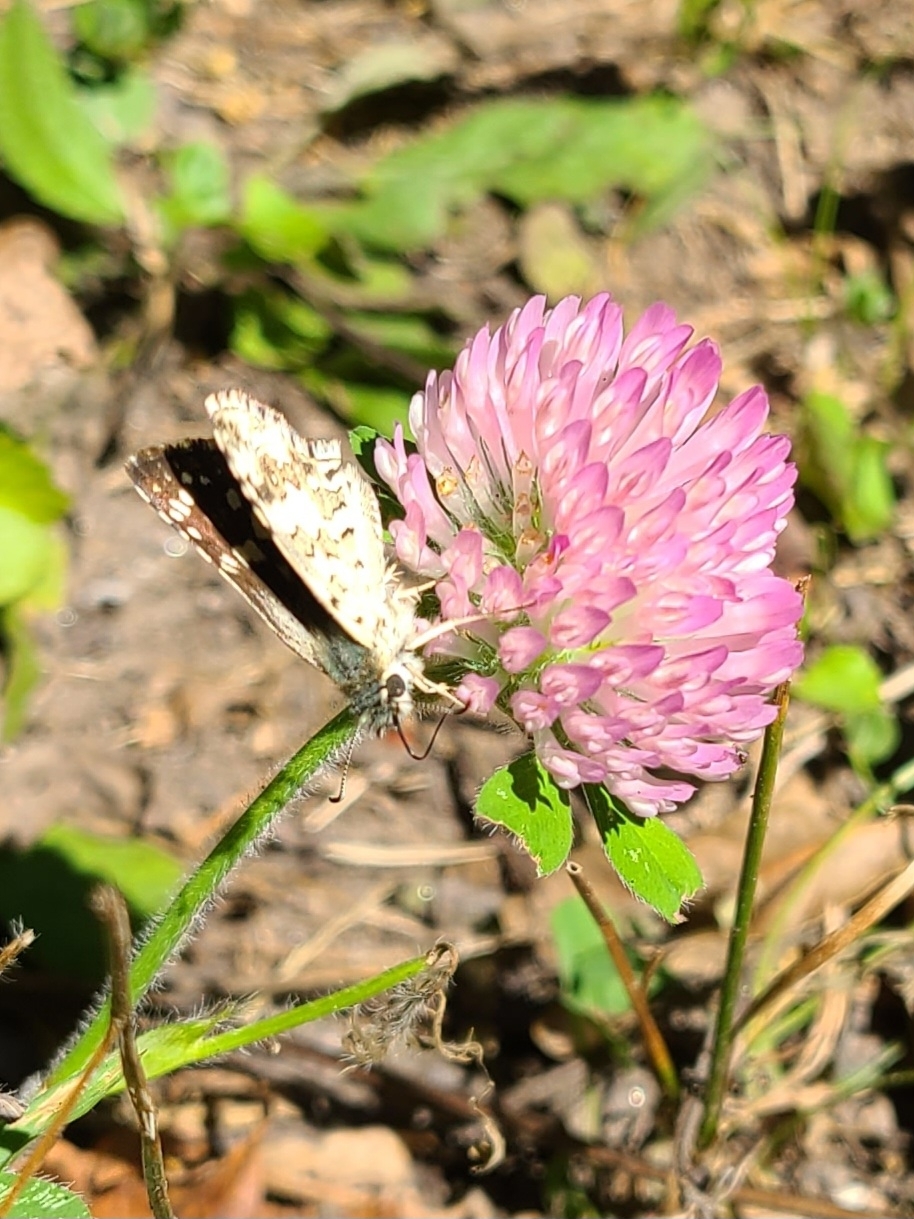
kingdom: Animalia
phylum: Arthropoda
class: Insecta
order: Lepidoptera
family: Hesperiidae
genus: Burnsius
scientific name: Burnsius communis
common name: Common checkered-skipper
